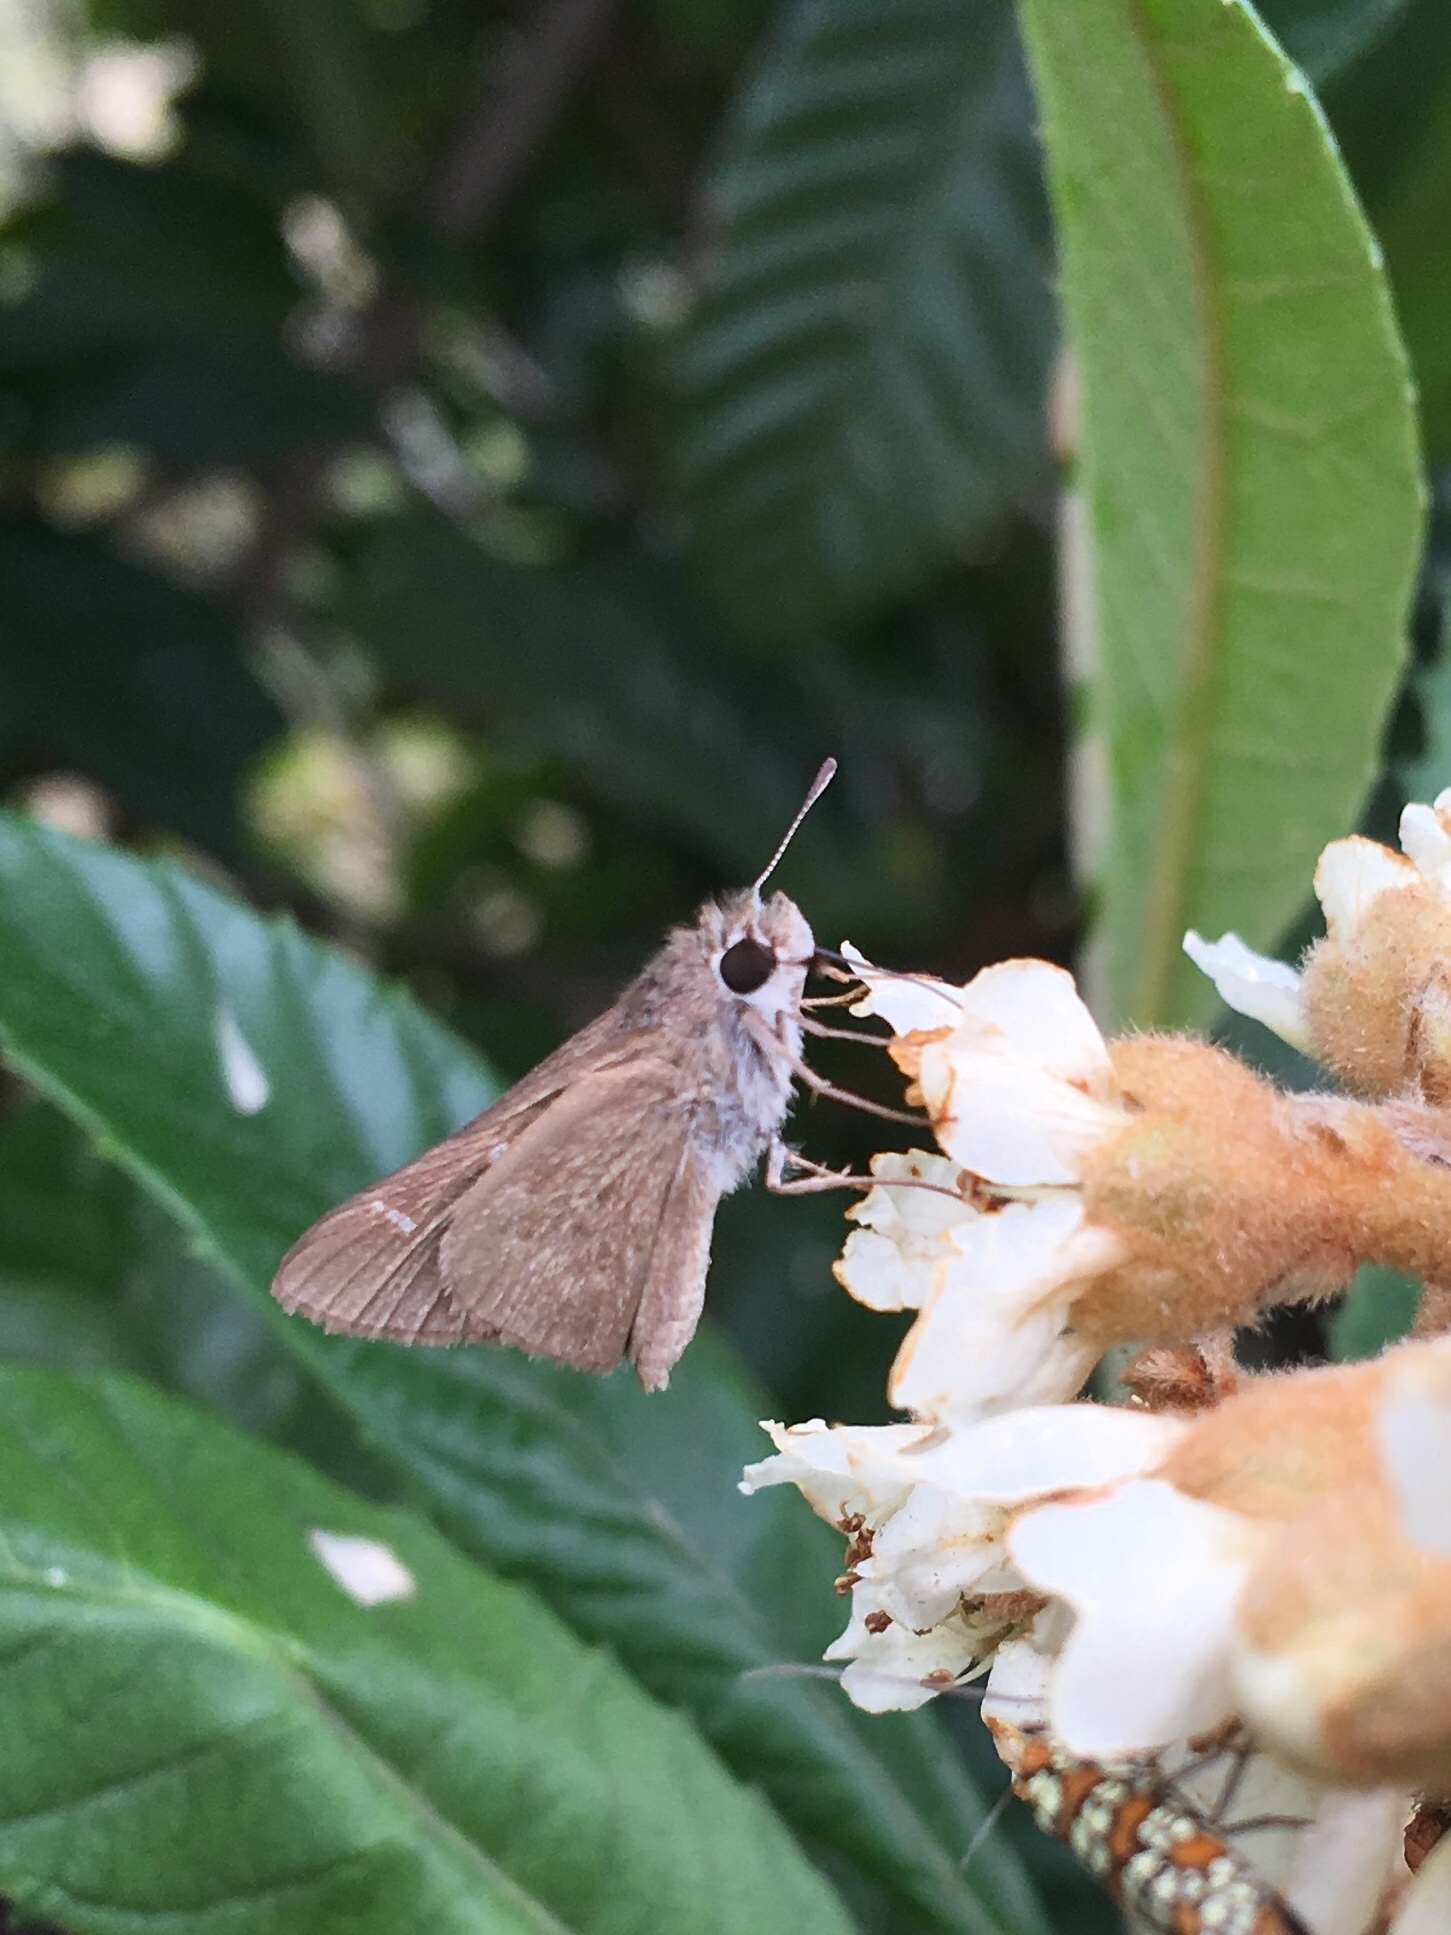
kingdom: Animalia
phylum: Arthropoda
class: Insecta
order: Lepidoptera
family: Hesperiidae
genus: Lerodea
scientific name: Lerodea eufala
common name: Eufala skipper
